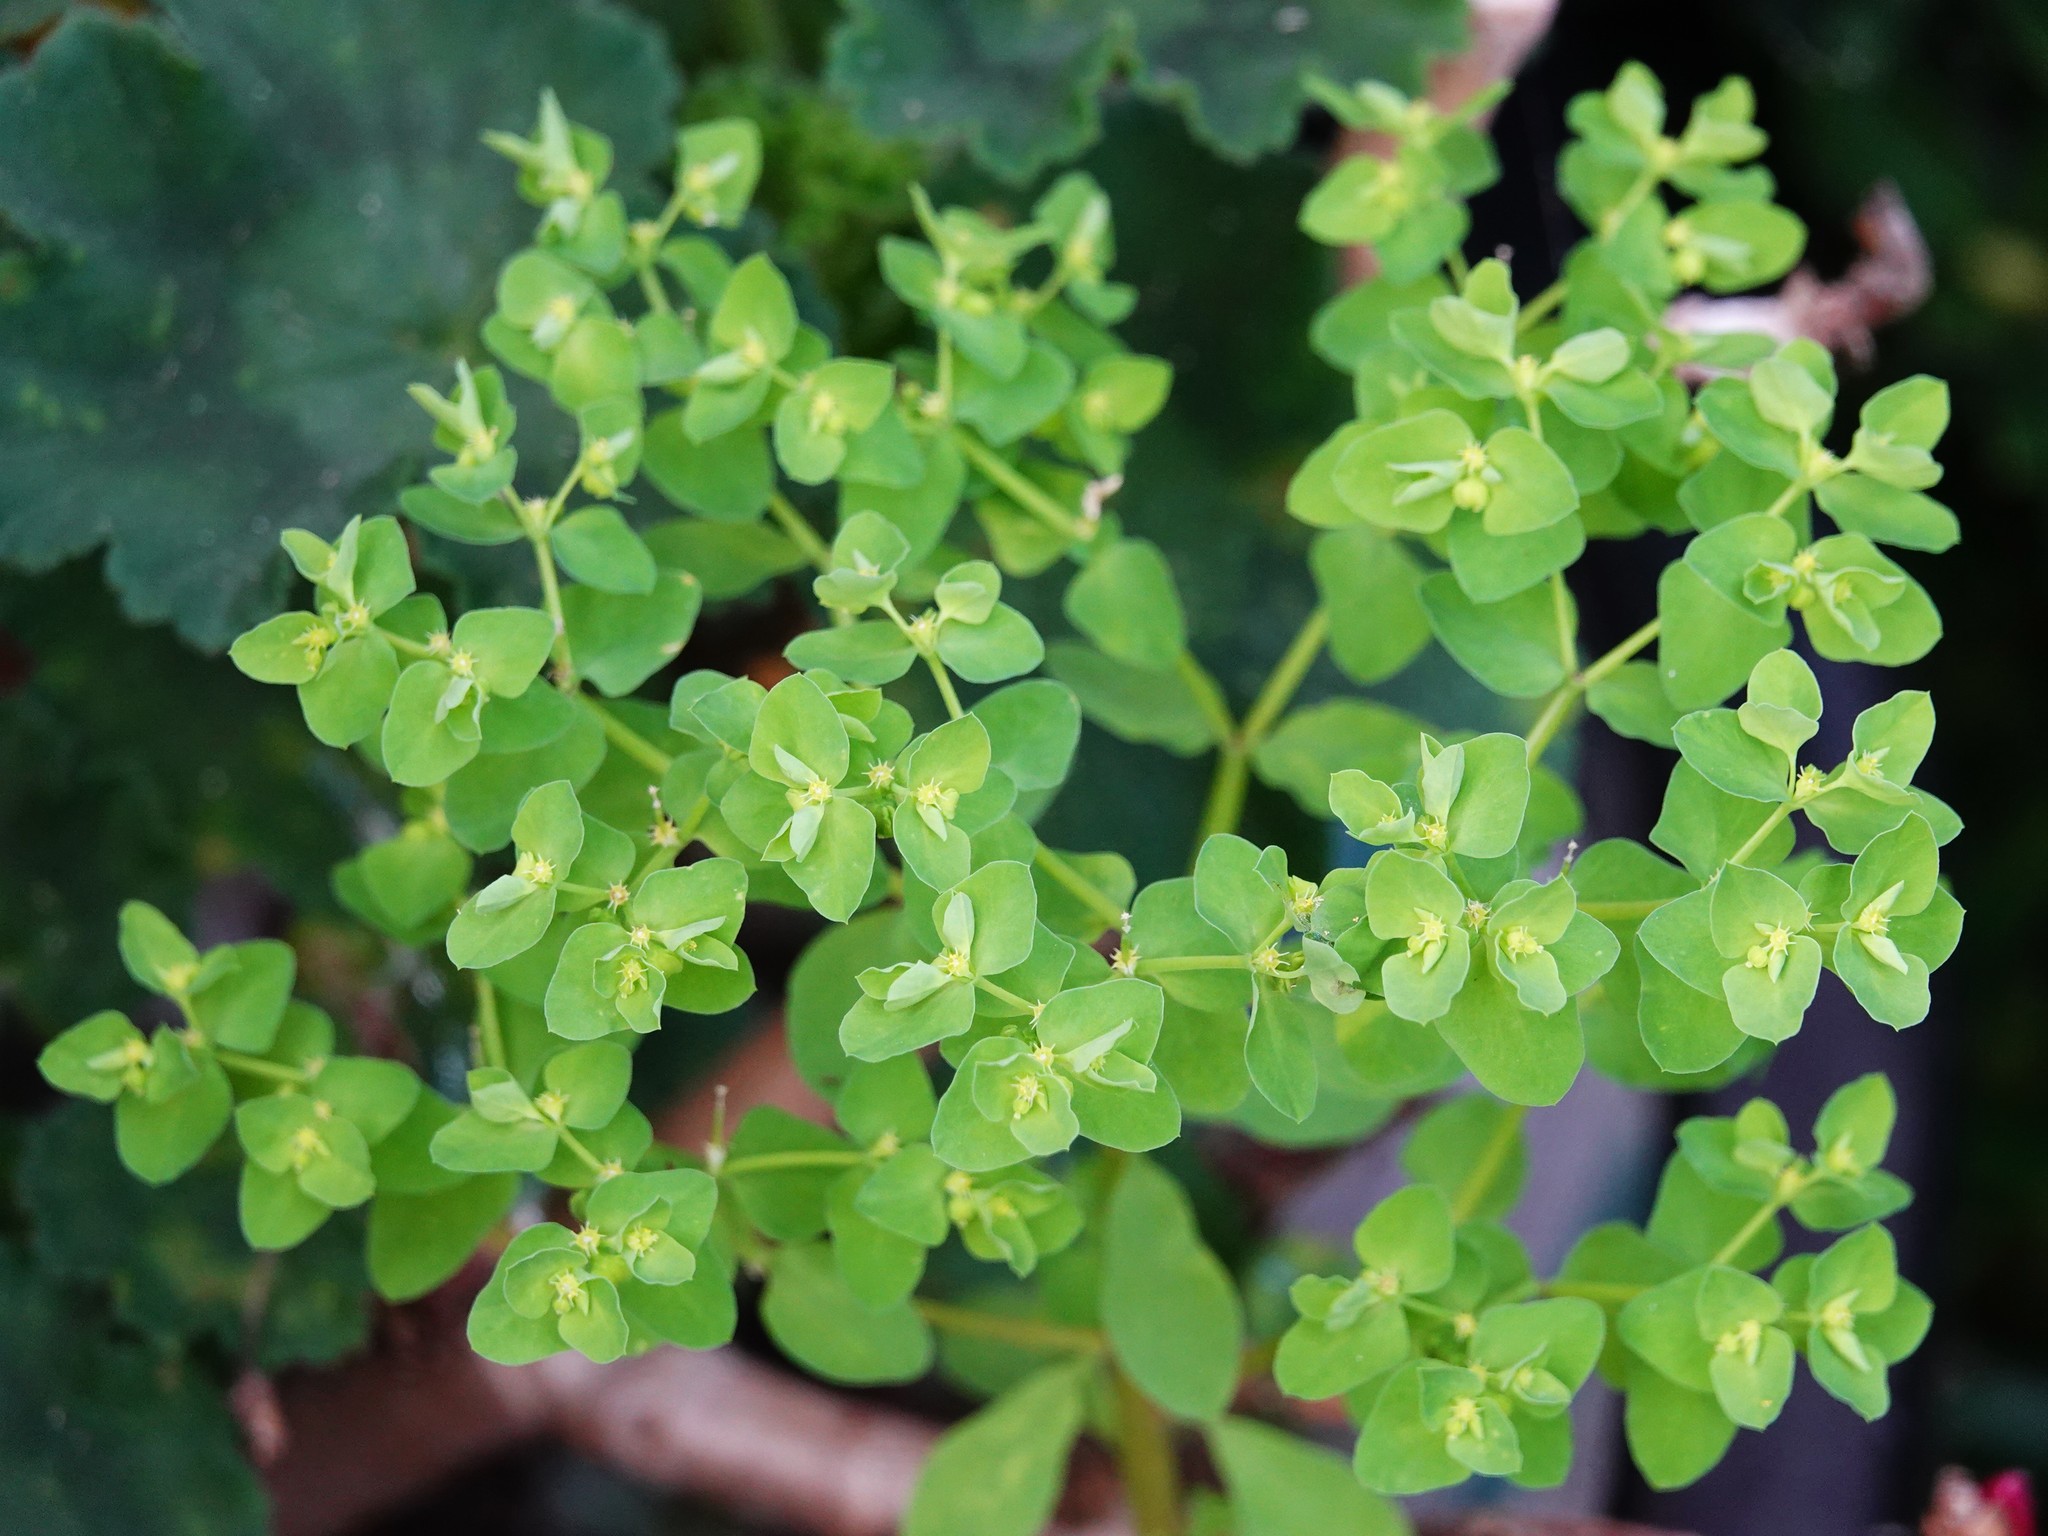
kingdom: Plantae
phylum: Tracheophyta
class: Magnoliopsida
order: Malpighiales
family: Euphorbiaceae
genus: Euphorbia
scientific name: Euphorbia peplus
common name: Petty spurge
